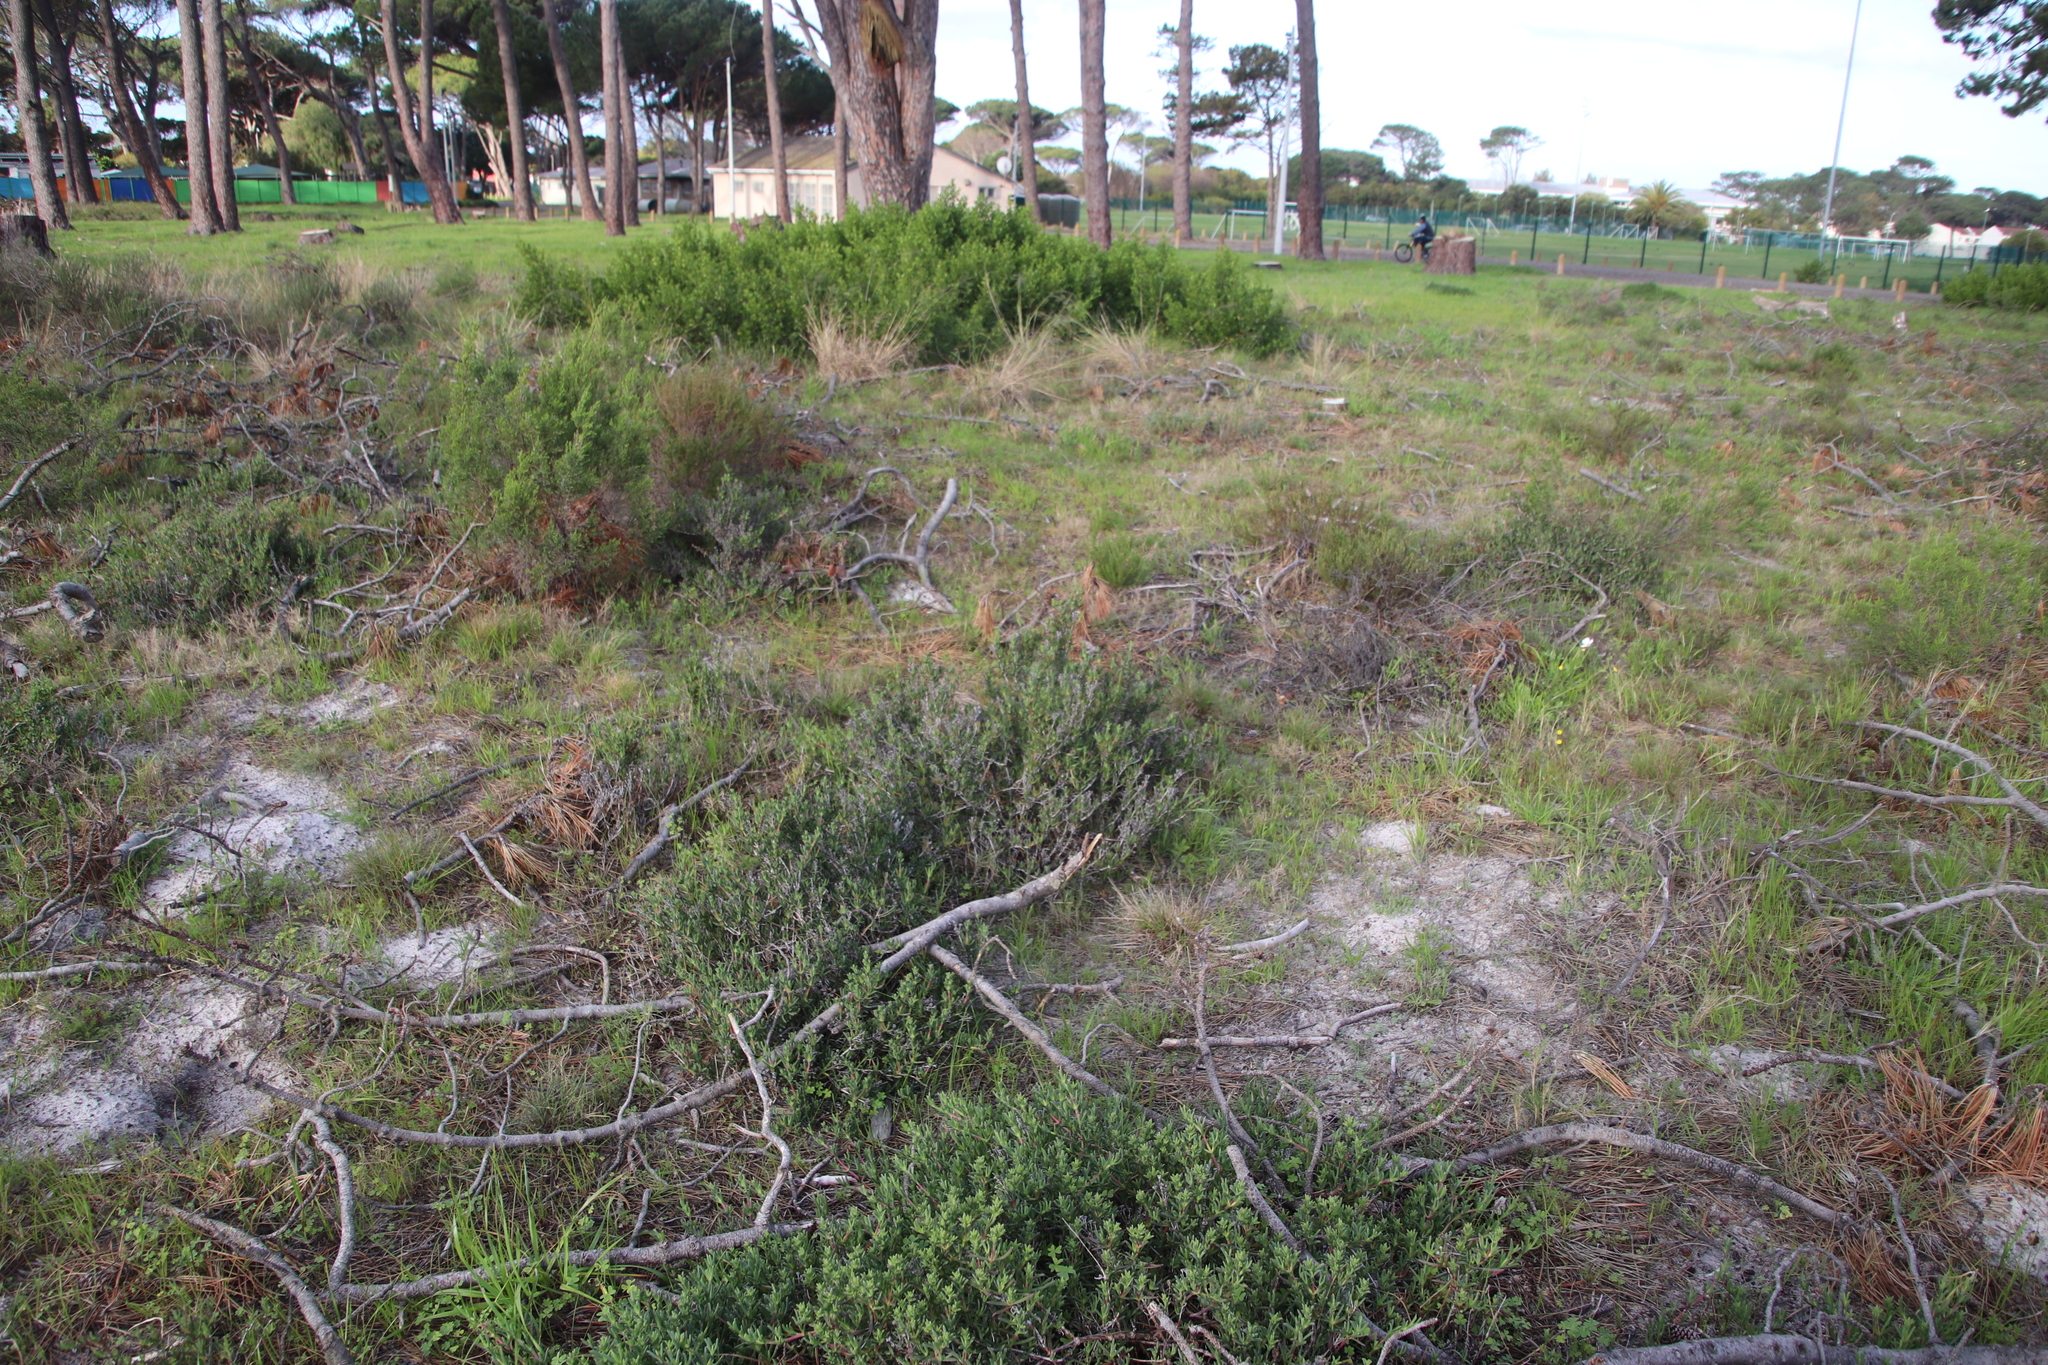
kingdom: Plantae
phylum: Tracheophyta
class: Magnoliopsida
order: Caryophyllales
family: Aizoaceae
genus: Ruschia
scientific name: Ruschia macowanii
